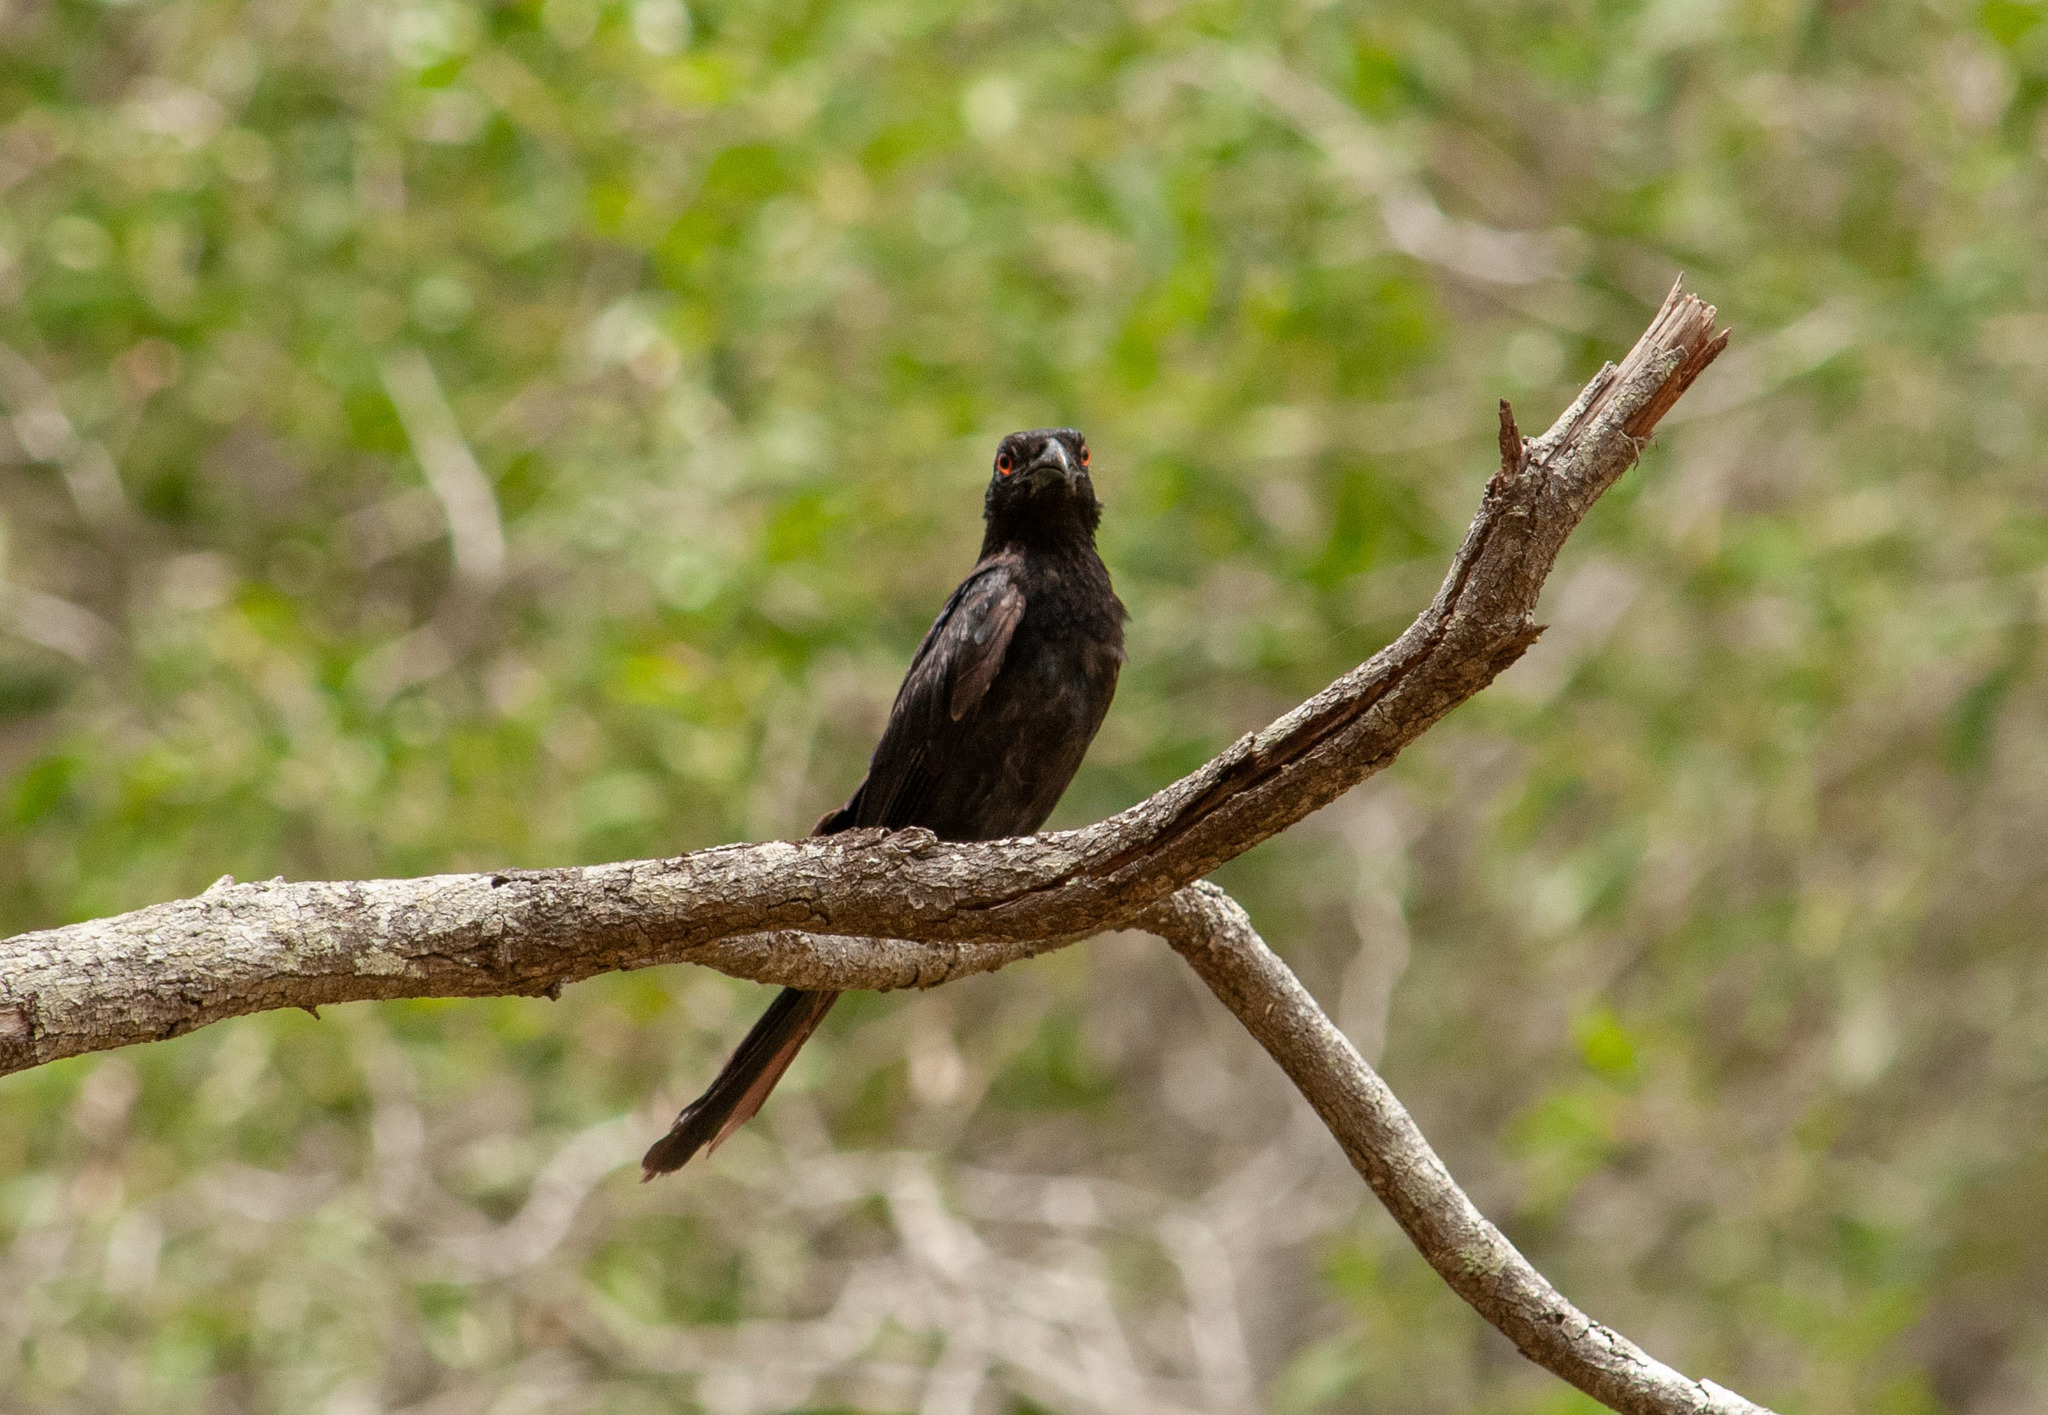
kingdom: Animalia
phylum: Chordata
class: Aves
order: Passeriformes
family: Dicruridae
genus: Dicrurus
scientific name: Dicrurus bracteatus
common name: Spangled drongo
